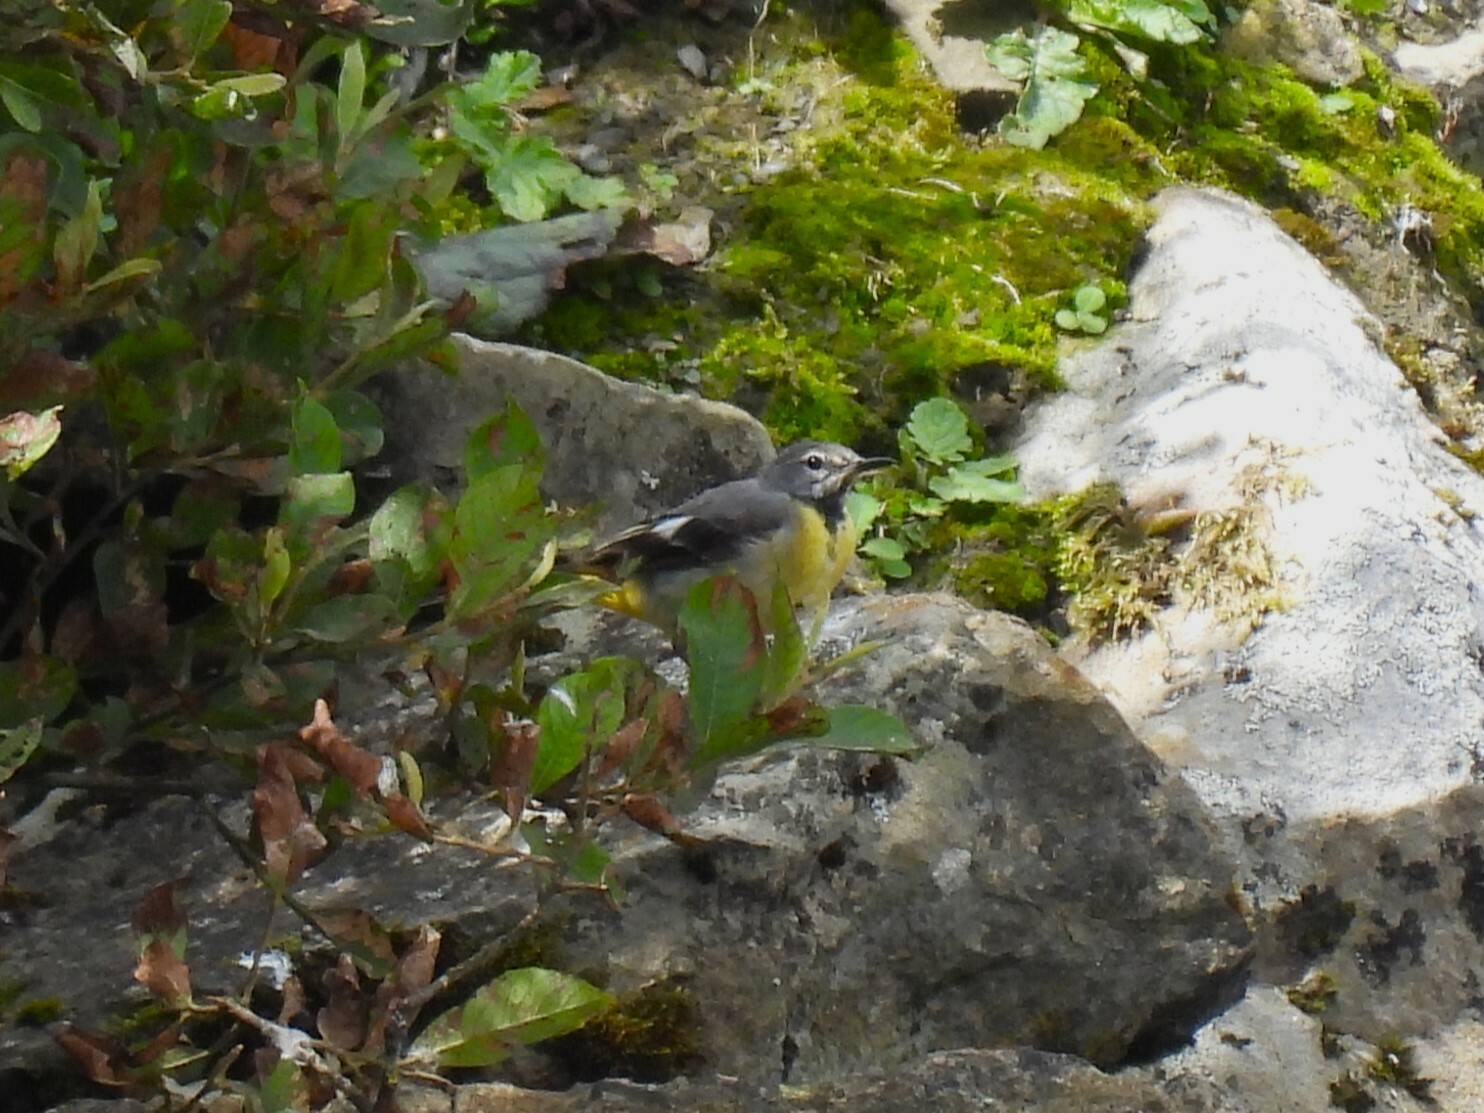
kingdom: Animalia
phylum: Chordata
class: Aves
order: Passeriformes
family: Motacillidae
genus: Motacilla
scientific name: Motacilla cinerea
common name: Grey wagtail
